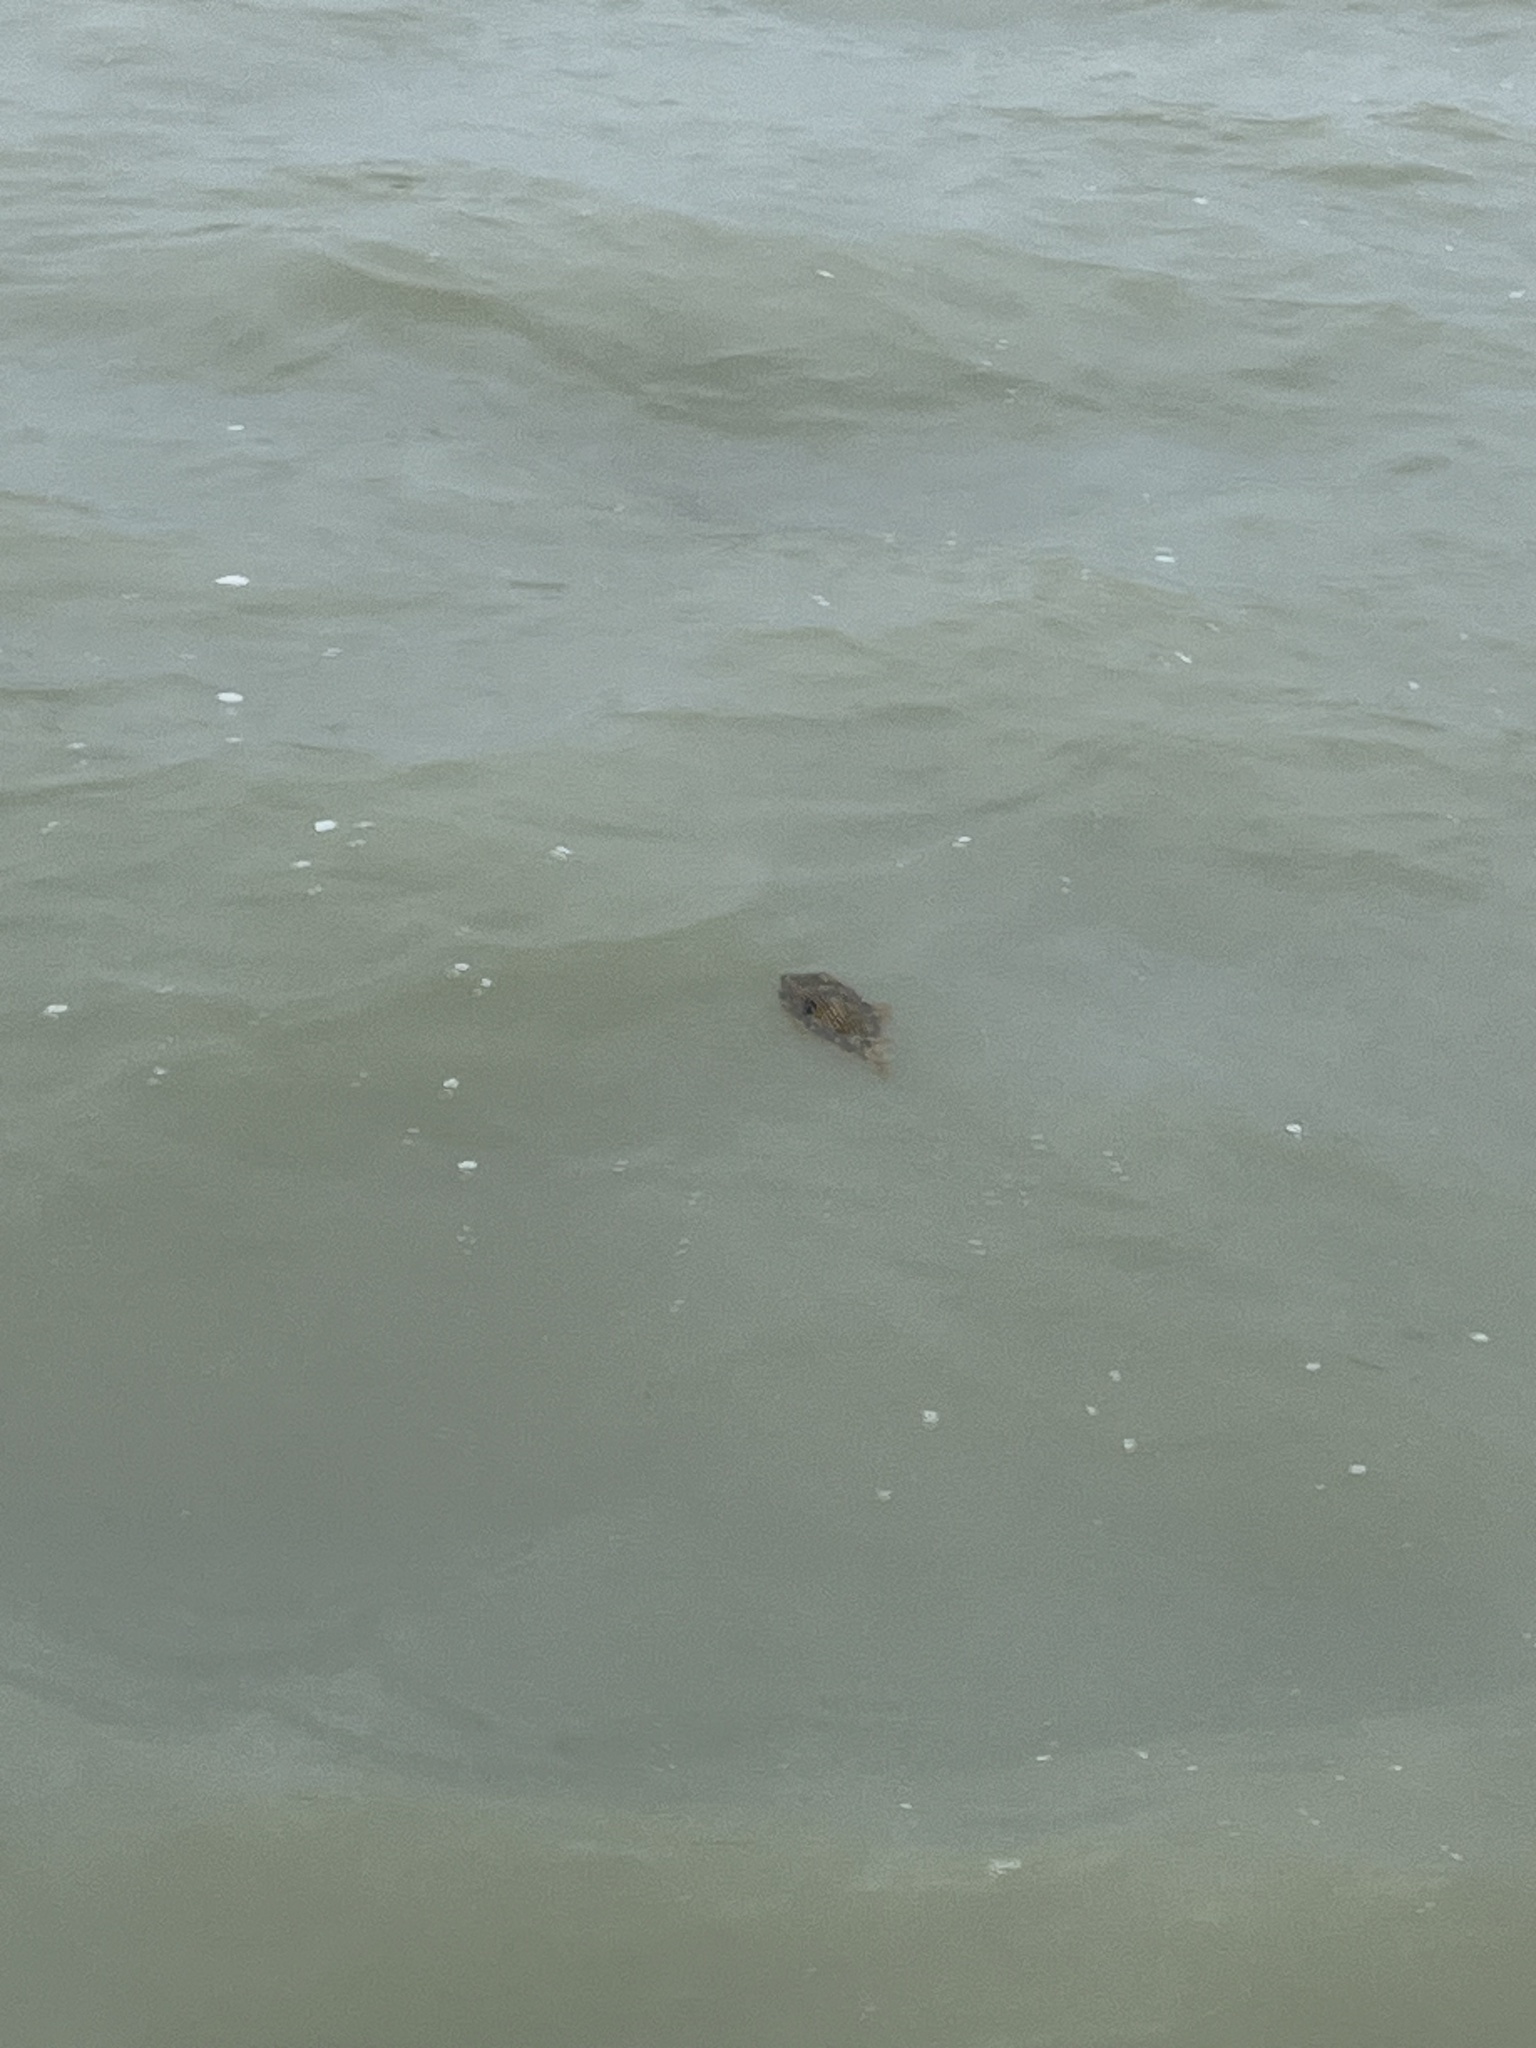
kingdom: Animalia
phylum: Chordata
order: Tetraodontiformes
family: Diodontidae
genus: Chilomycterus
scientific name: Chilomycterus schoepfii
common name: Striped burrfish
